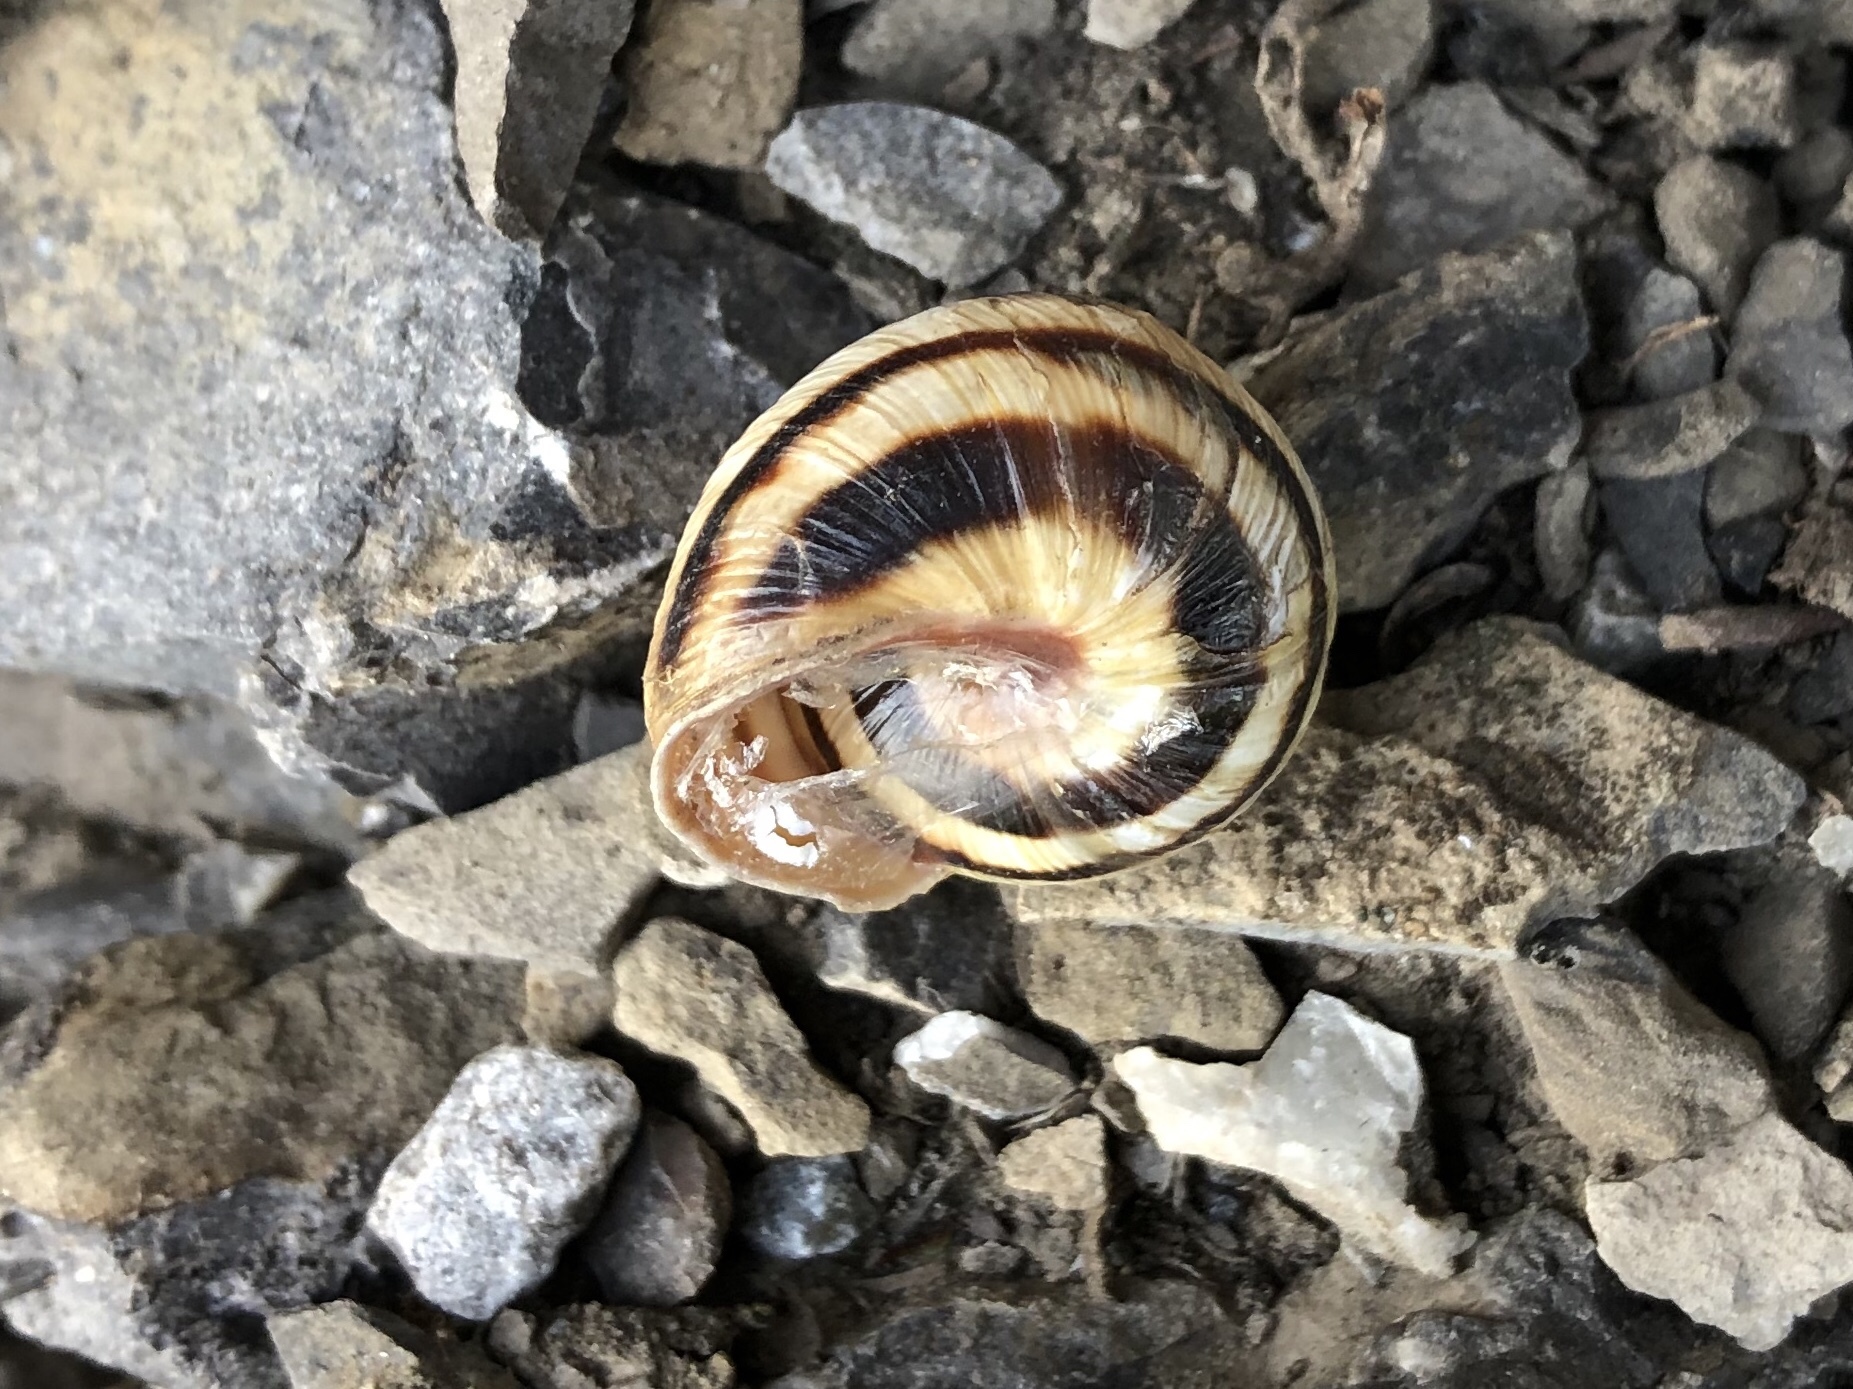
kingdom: Animalia
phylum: Mollusca
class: Gastropoda
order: Stylommatophora
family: Helicidae
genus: Caucasotachea
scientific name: Caucasotachea vindobonensis
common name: European helicid land snail
